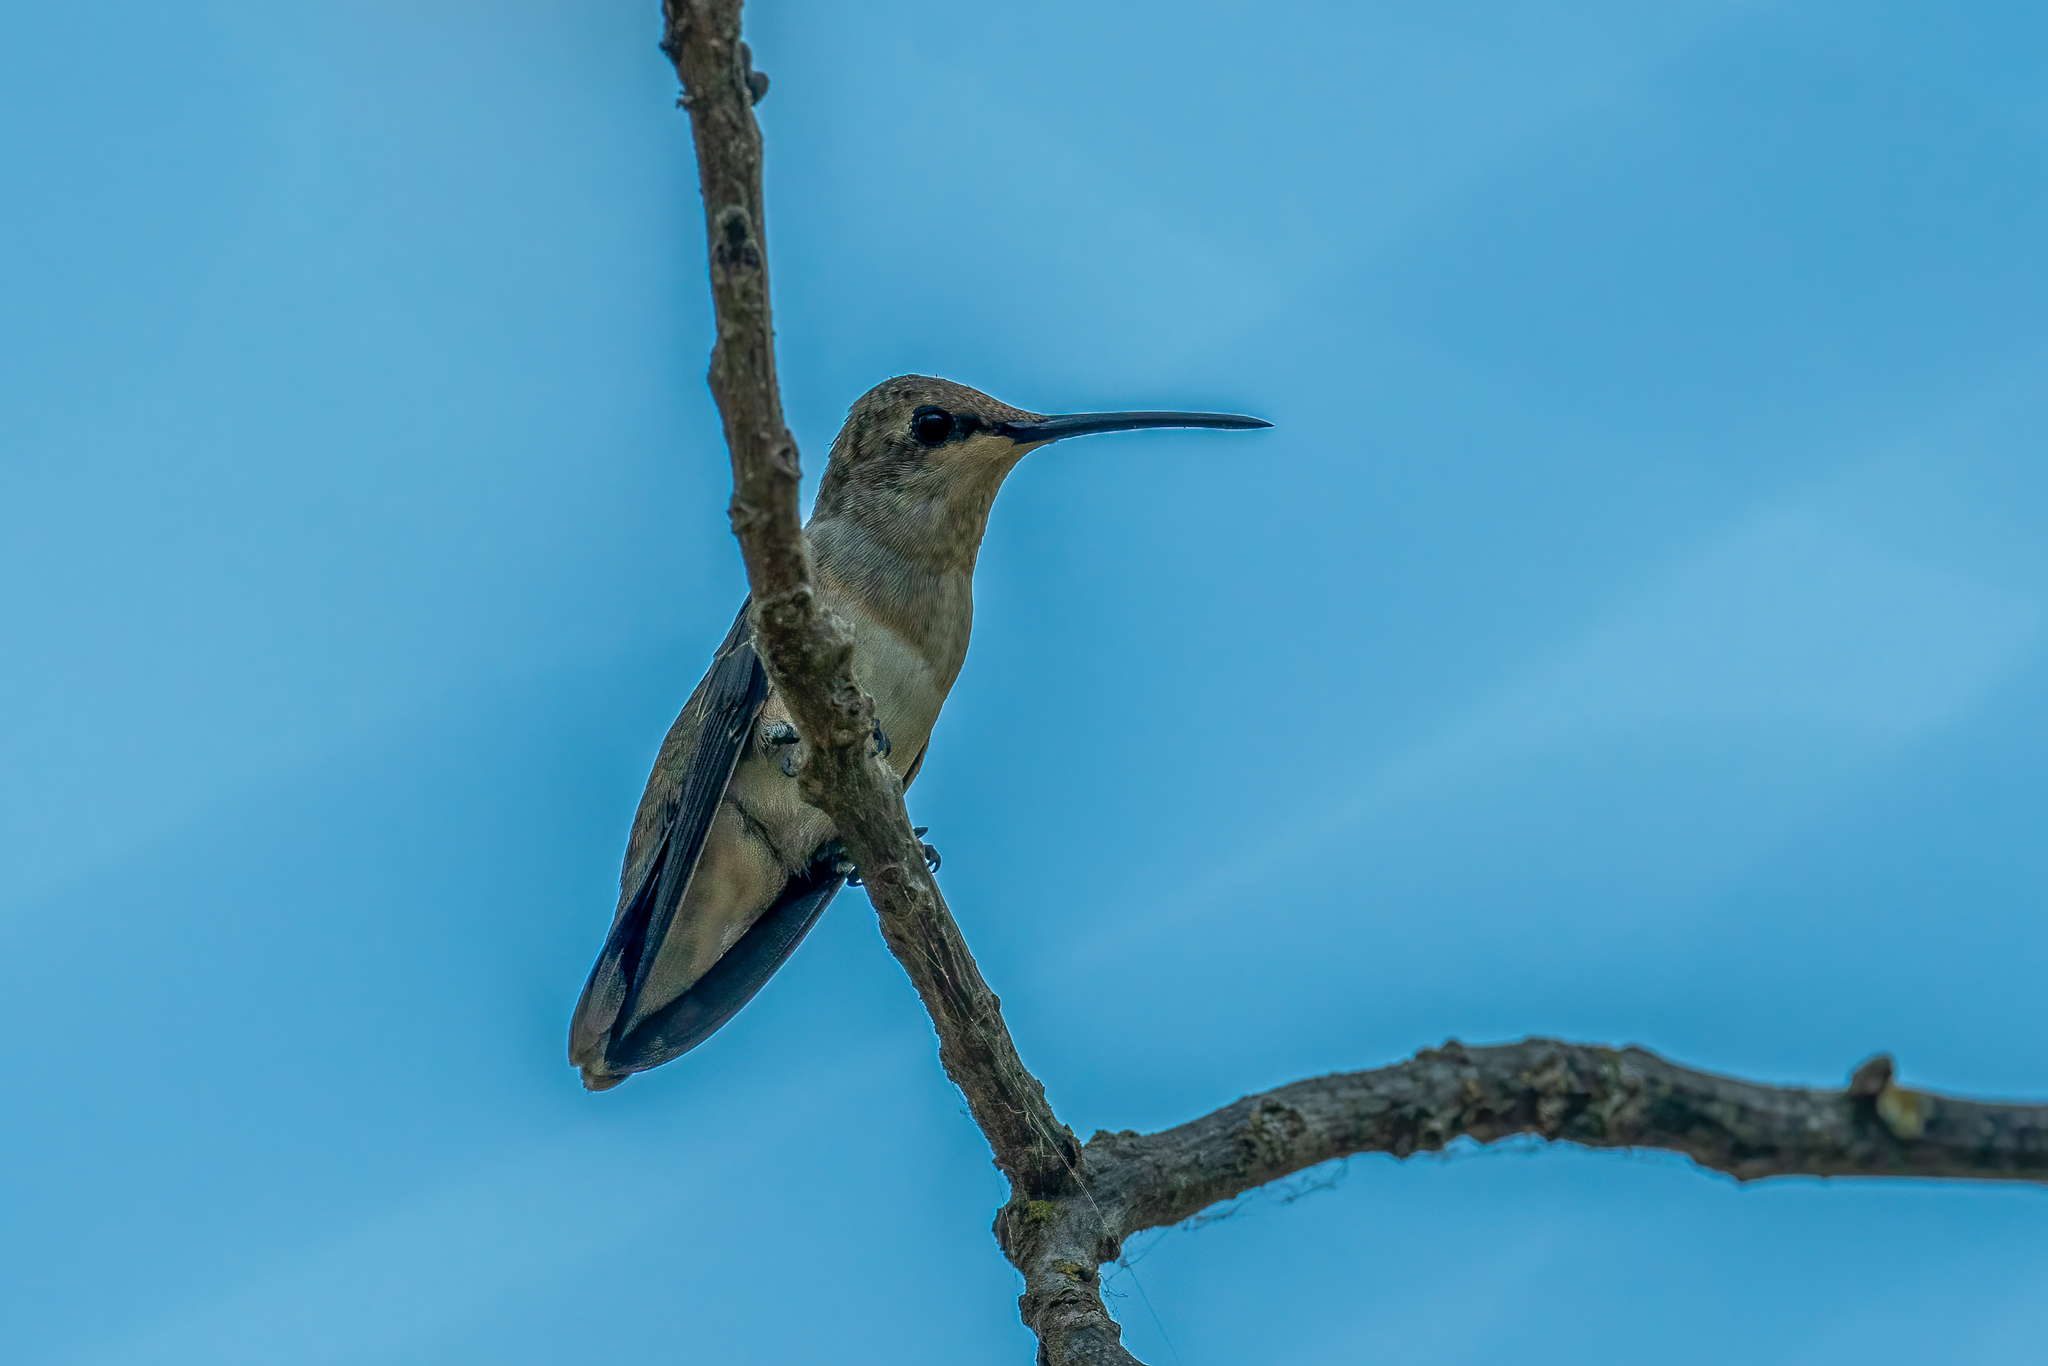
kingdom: Animalia
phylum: Chordata
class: Aves
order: Apodiformes
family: Trochilidae
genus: Archilochus
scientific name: Archilochus alexandri
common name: Black-chinned hummingbird
